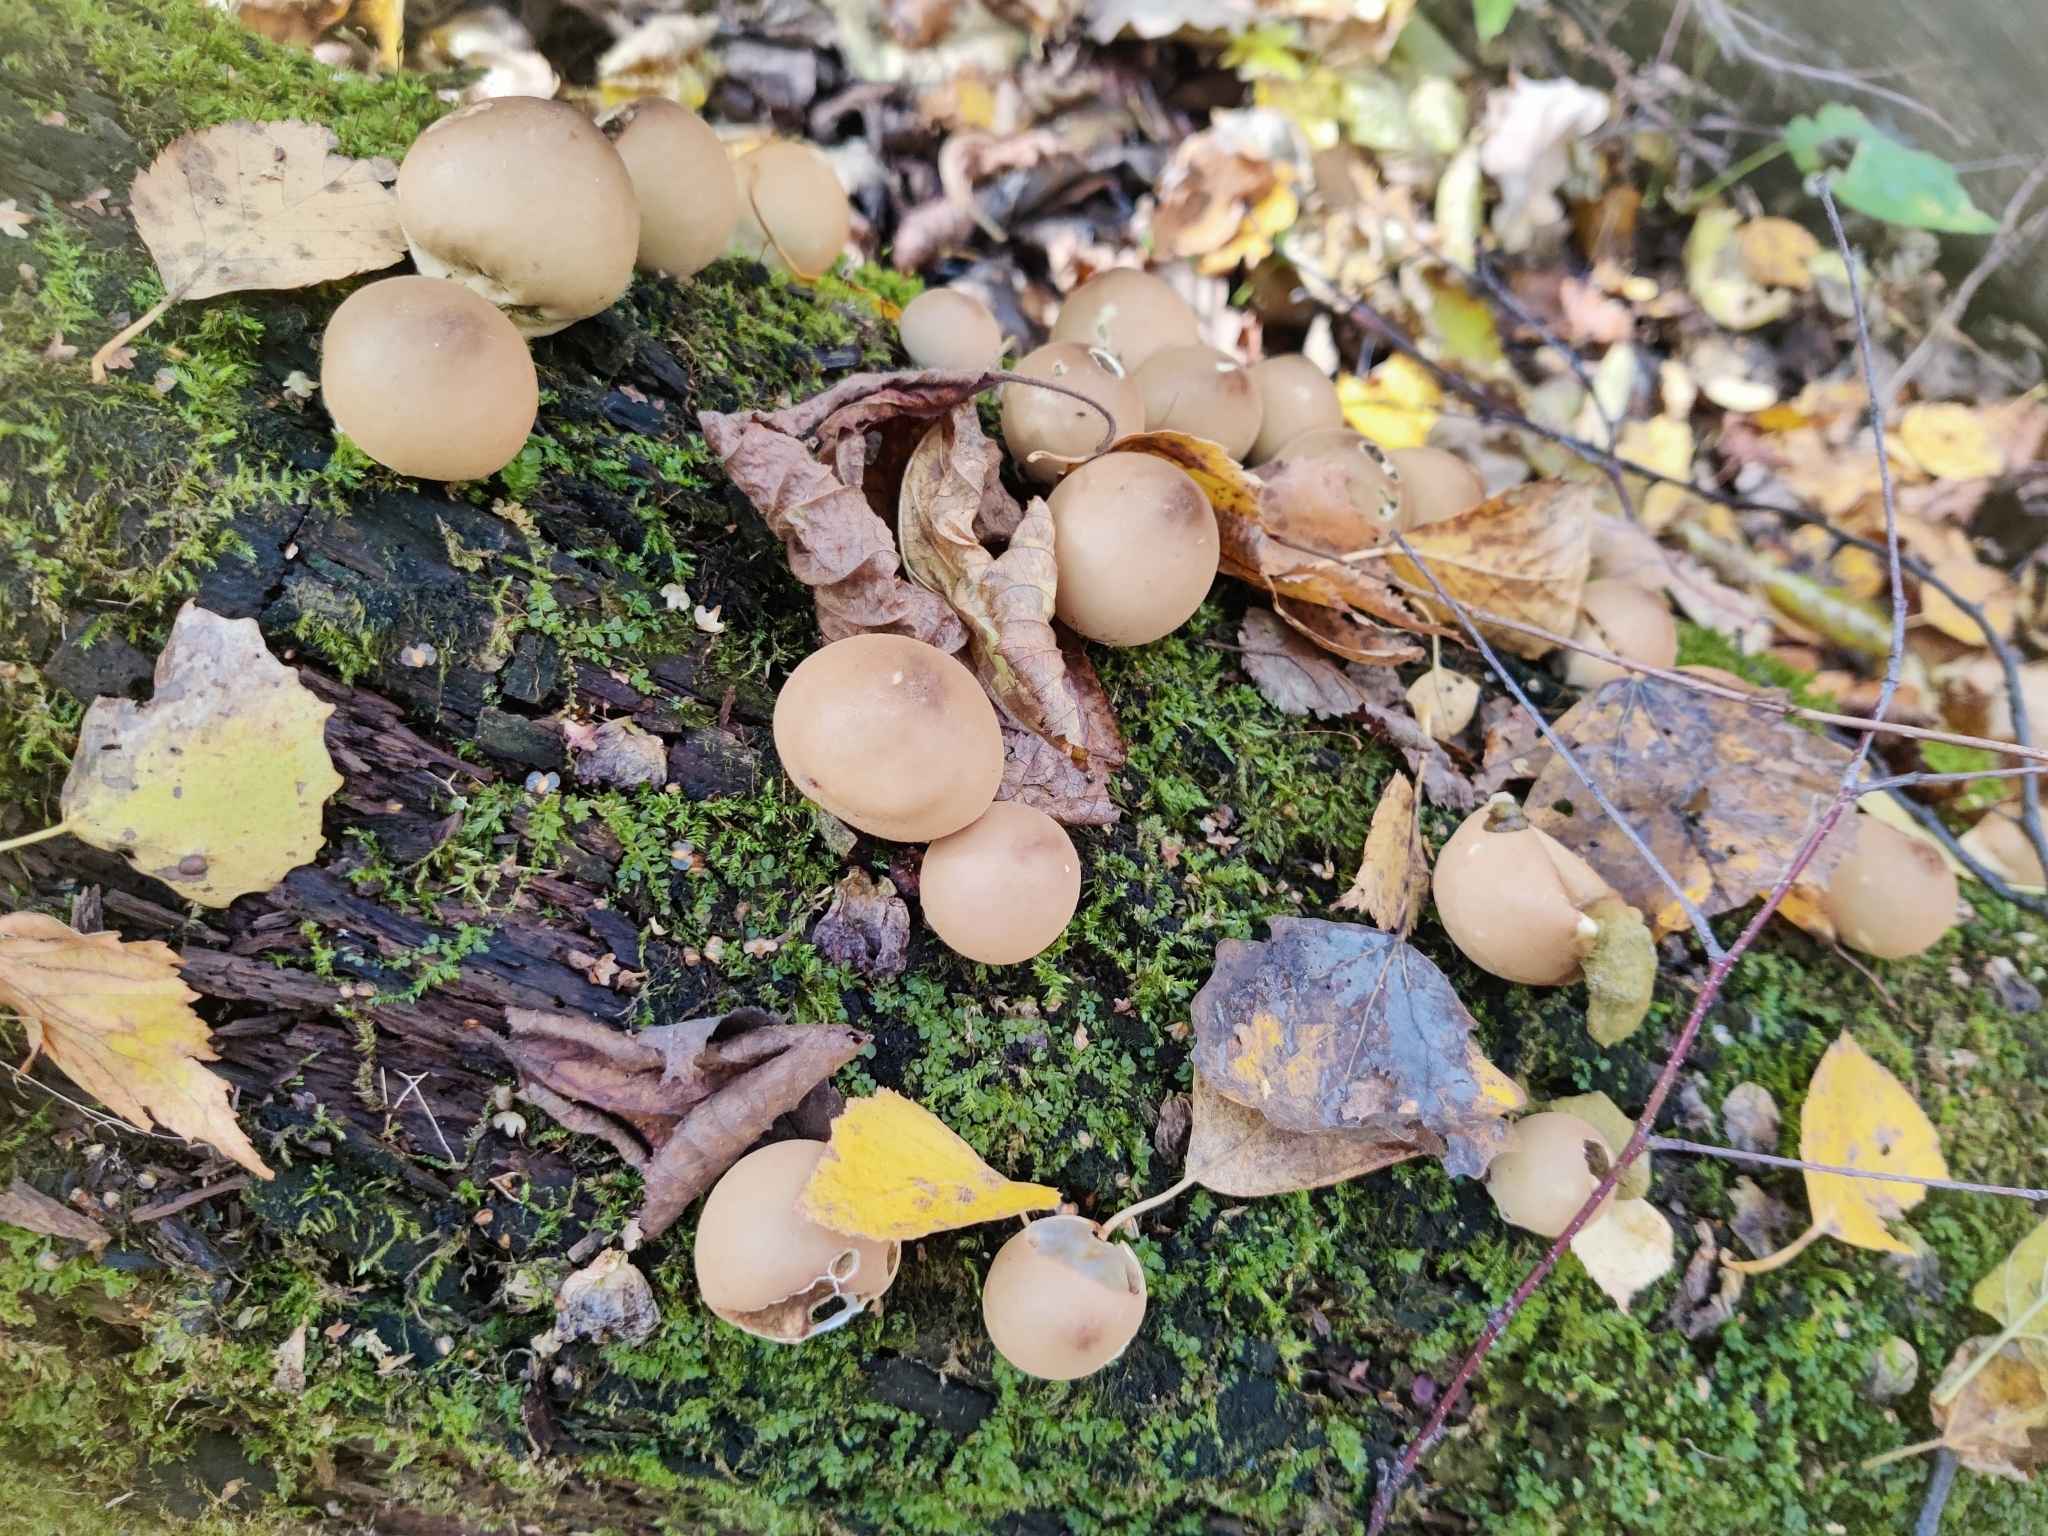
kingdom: Fungi
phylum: Basidiomycota
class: Agaricomycetes
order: Agaricales
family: Lycoperdaceae
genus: Apioperdon
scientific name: Apioperdon pyriforme
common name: Pear-shaped puffball
